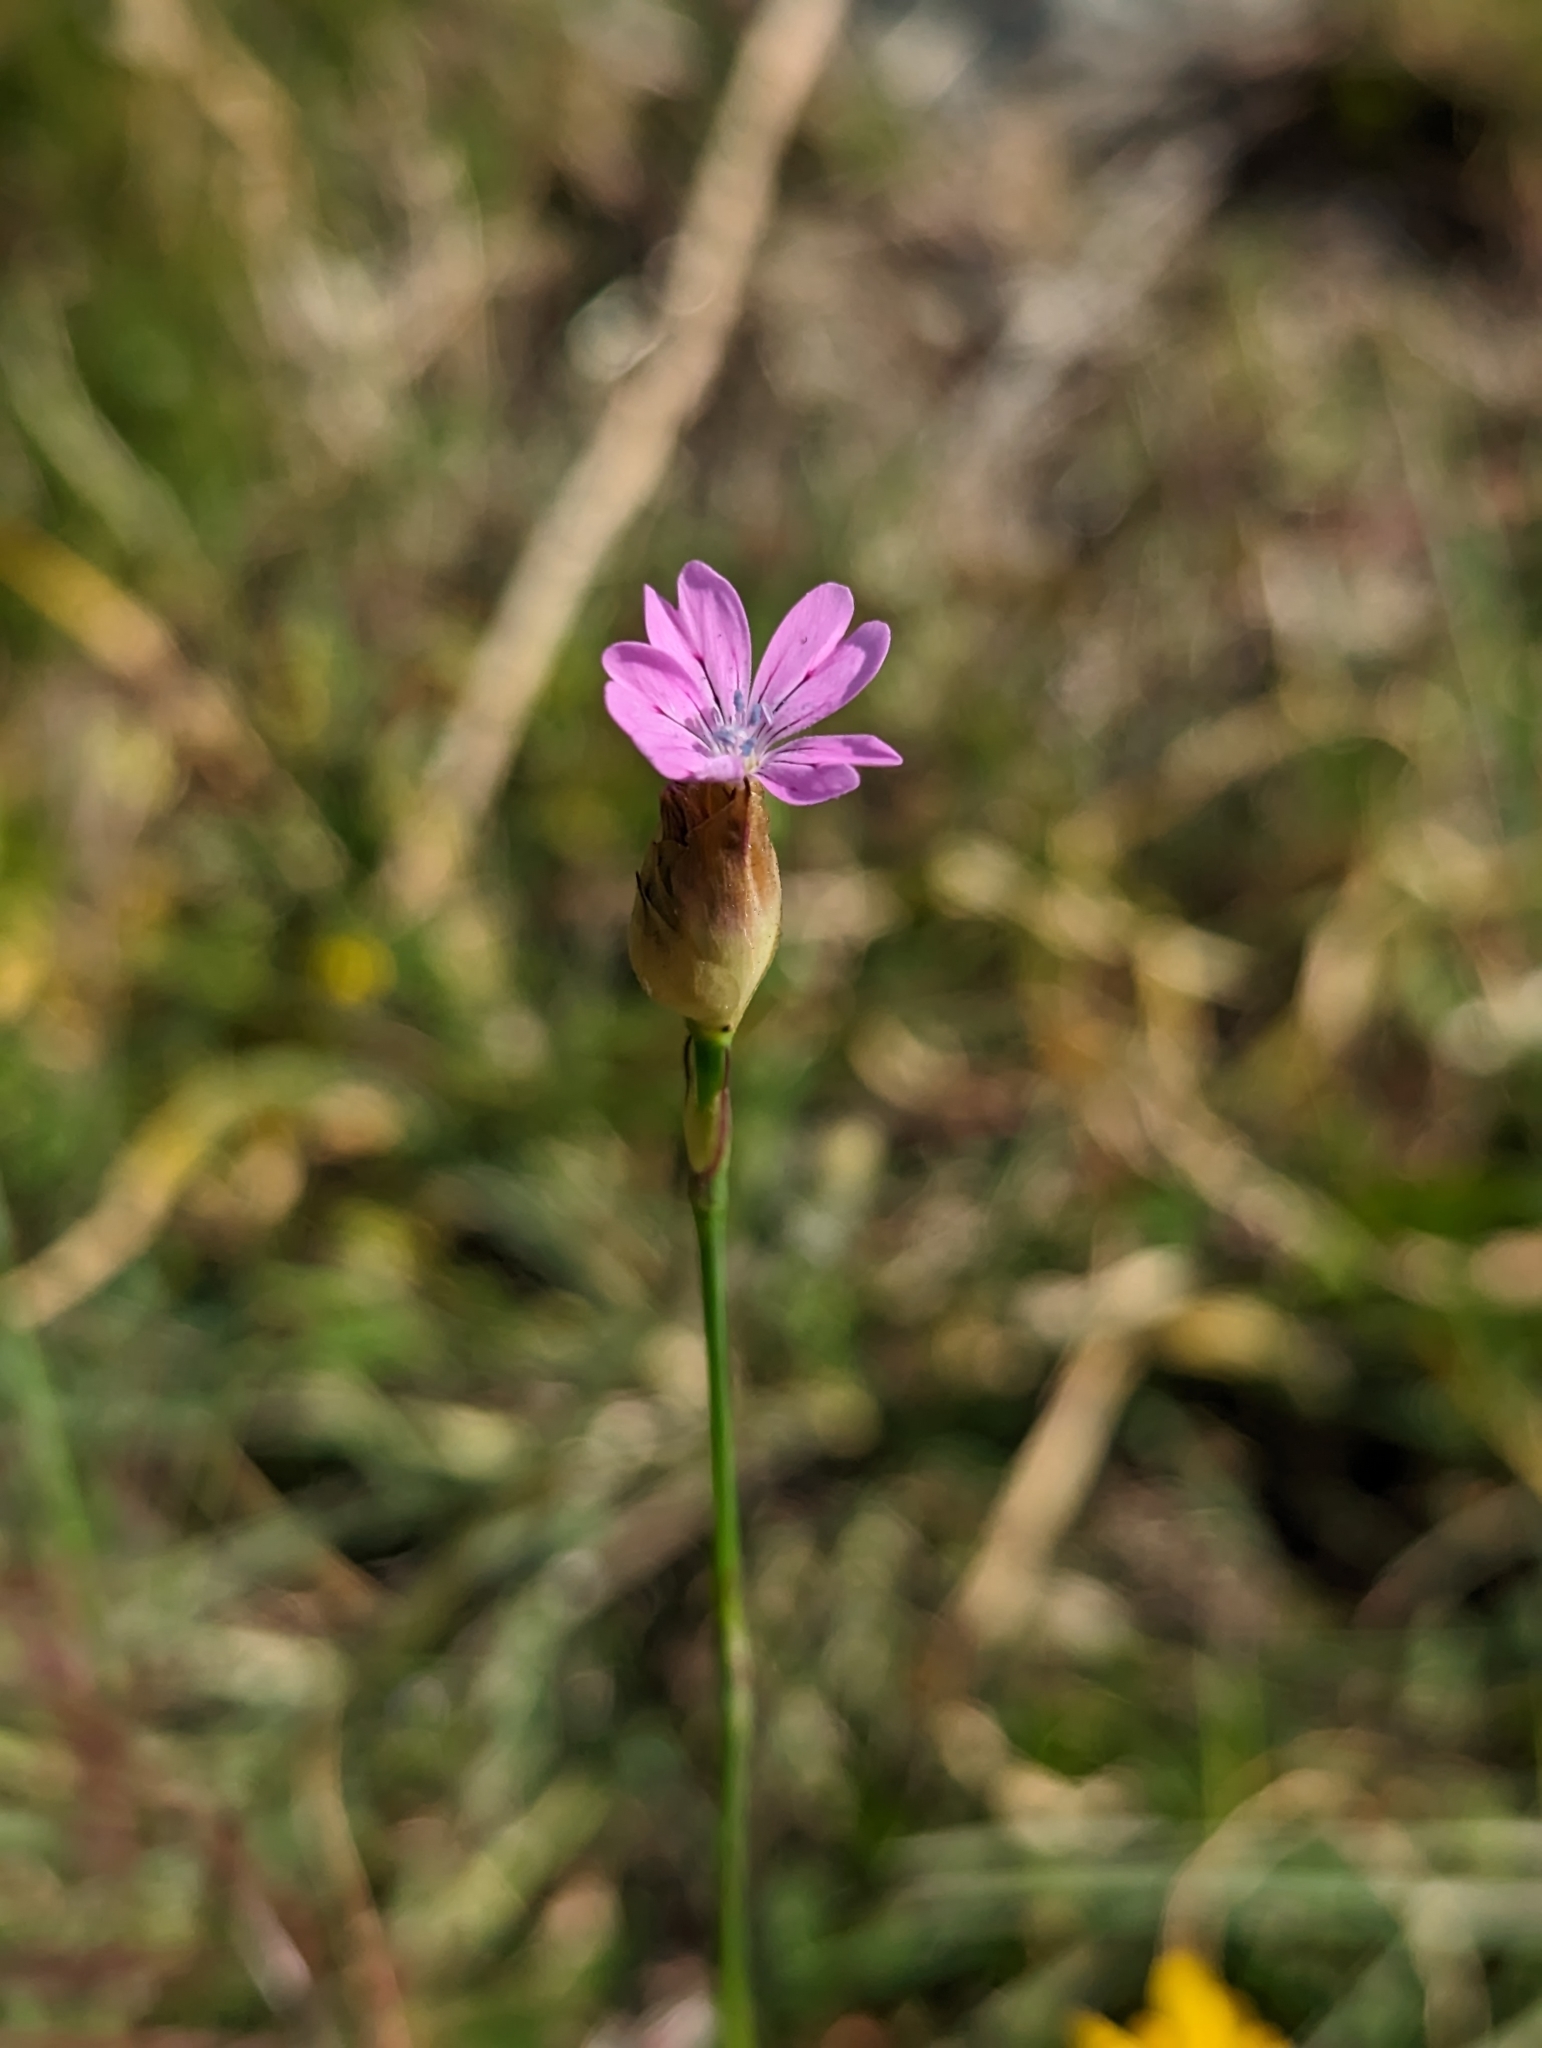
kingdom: Plantae
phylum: Tracheophyta
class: Magnoliopsida
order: Caryophyllales
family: Caryophyllaceae
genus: Petrorhagia
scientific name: Petrorhagia dubia
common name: Hairypink
